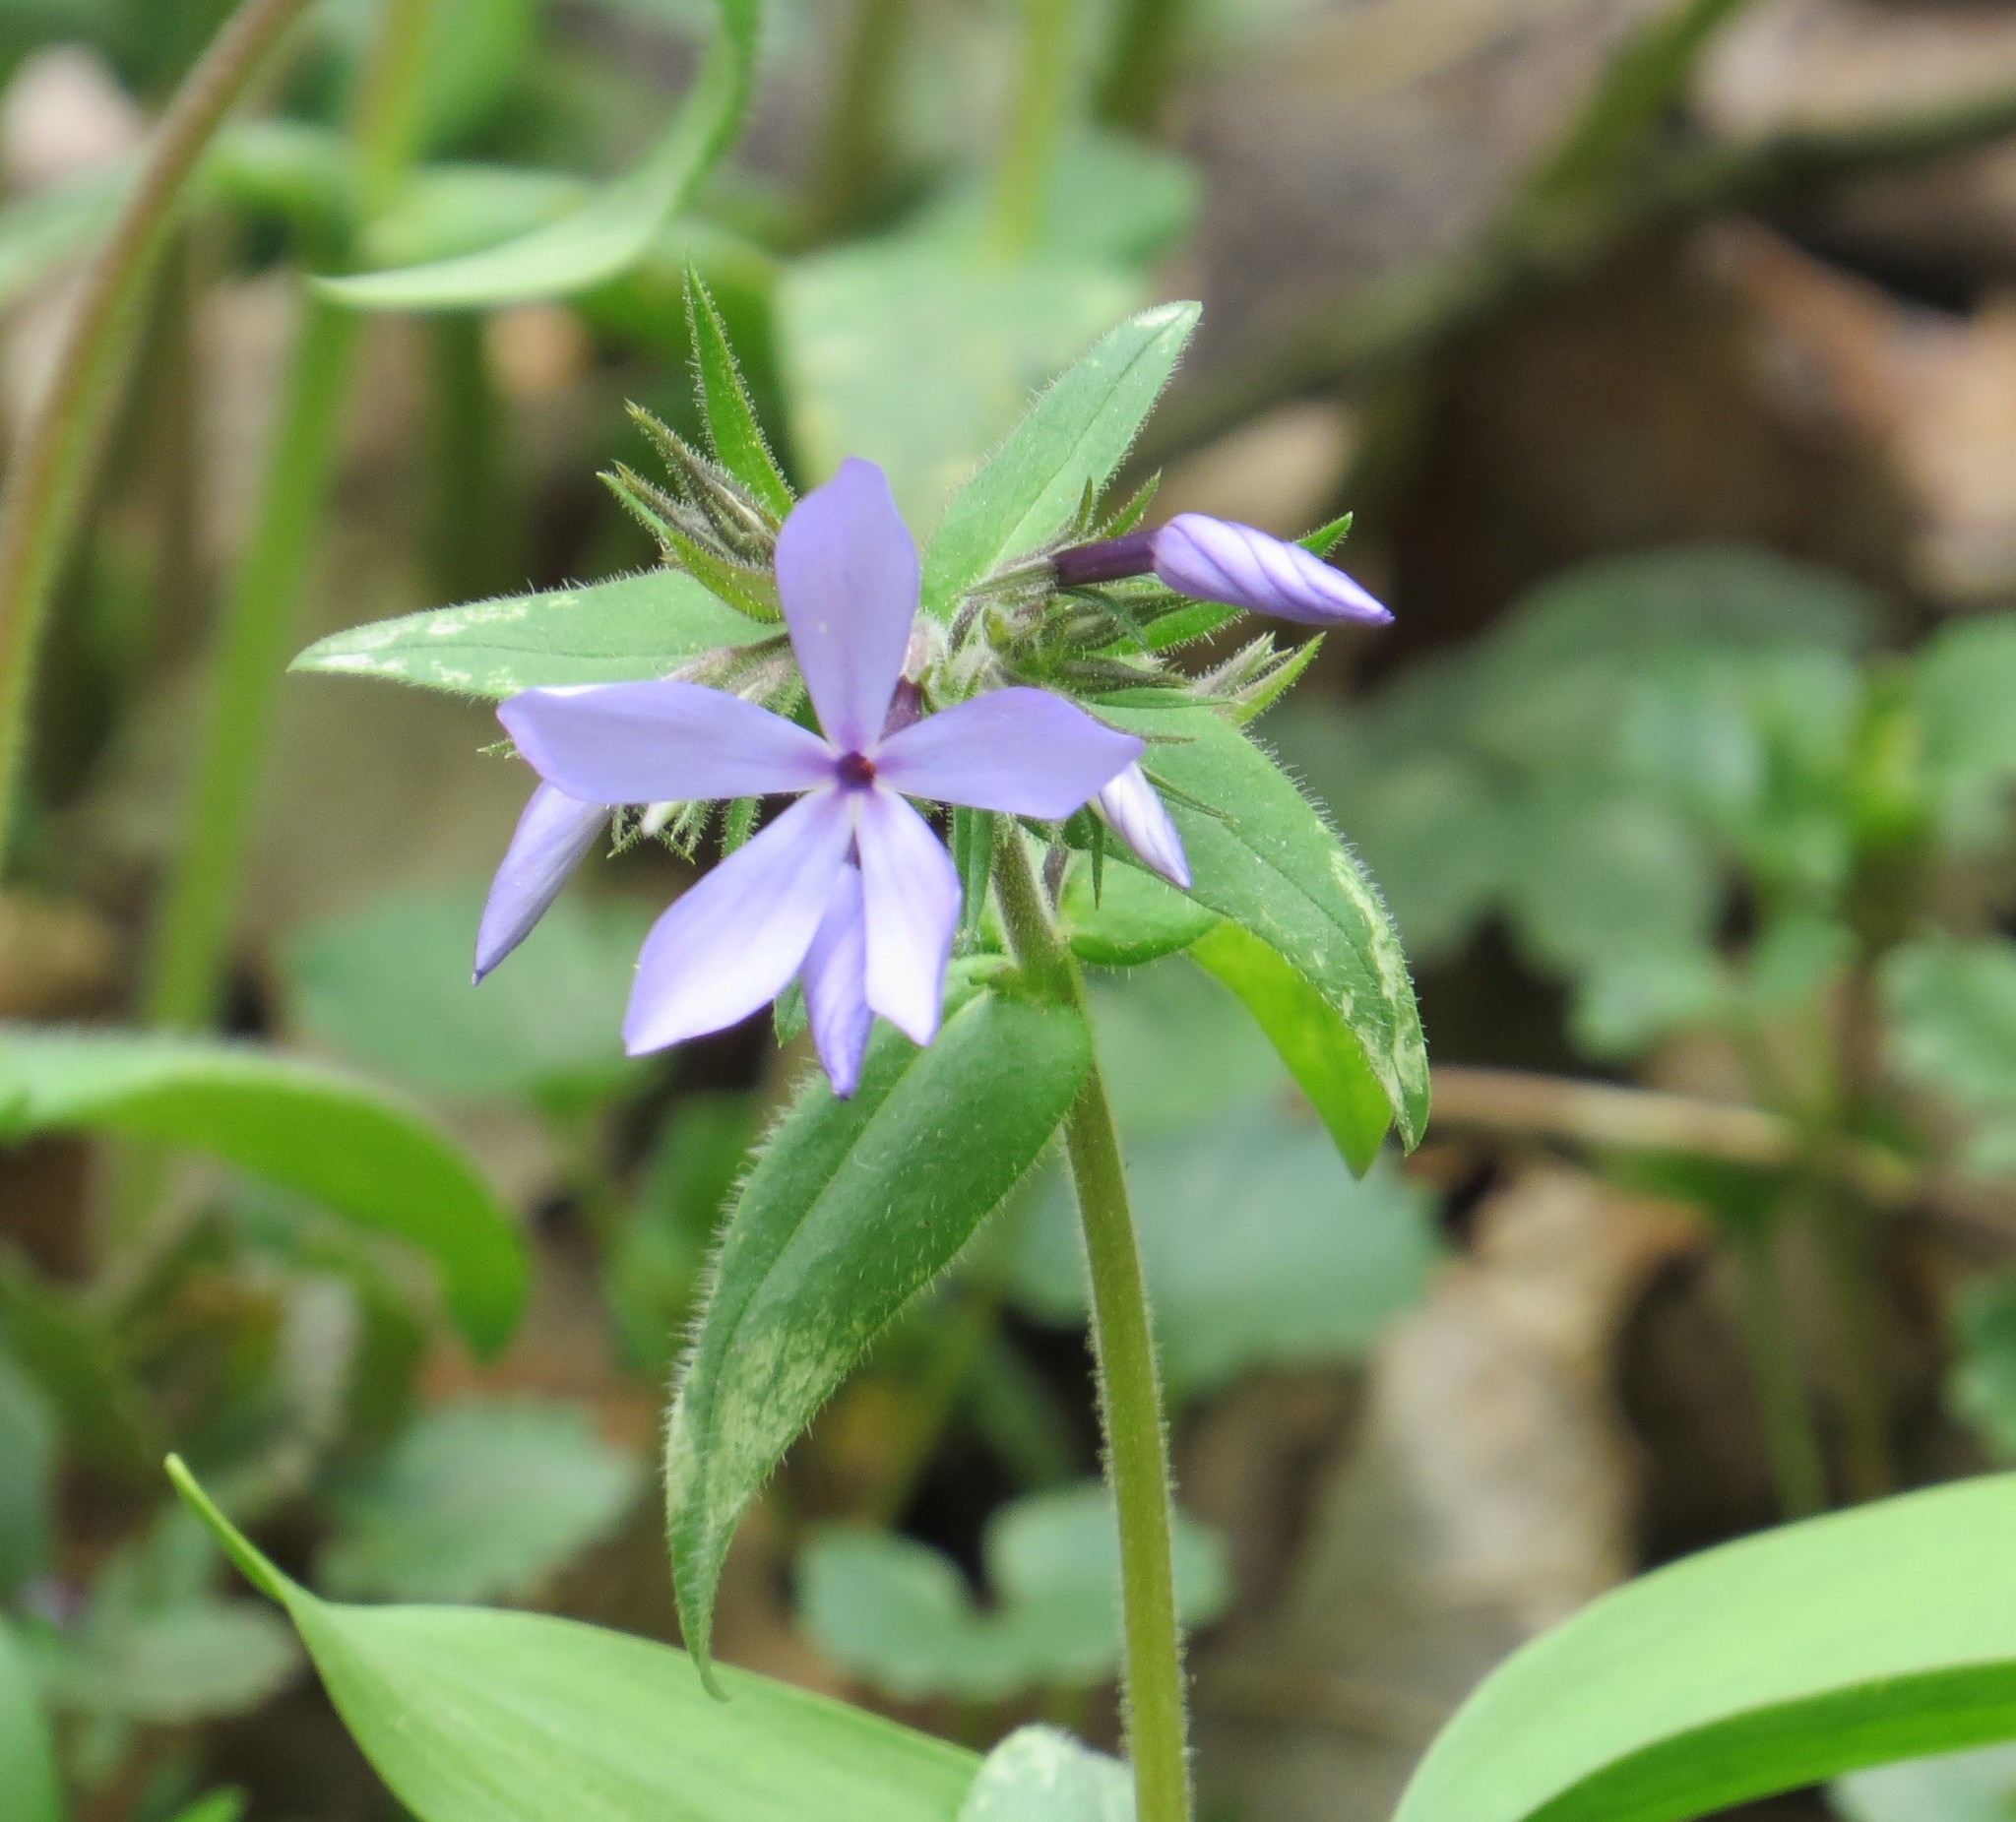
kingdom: Plantae
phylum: Tracheophyta
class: Magnoliopsida
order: Ericales
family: Polemoniaceae
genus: Phlox
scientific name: Phlox divaricata
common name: Blue phlox
